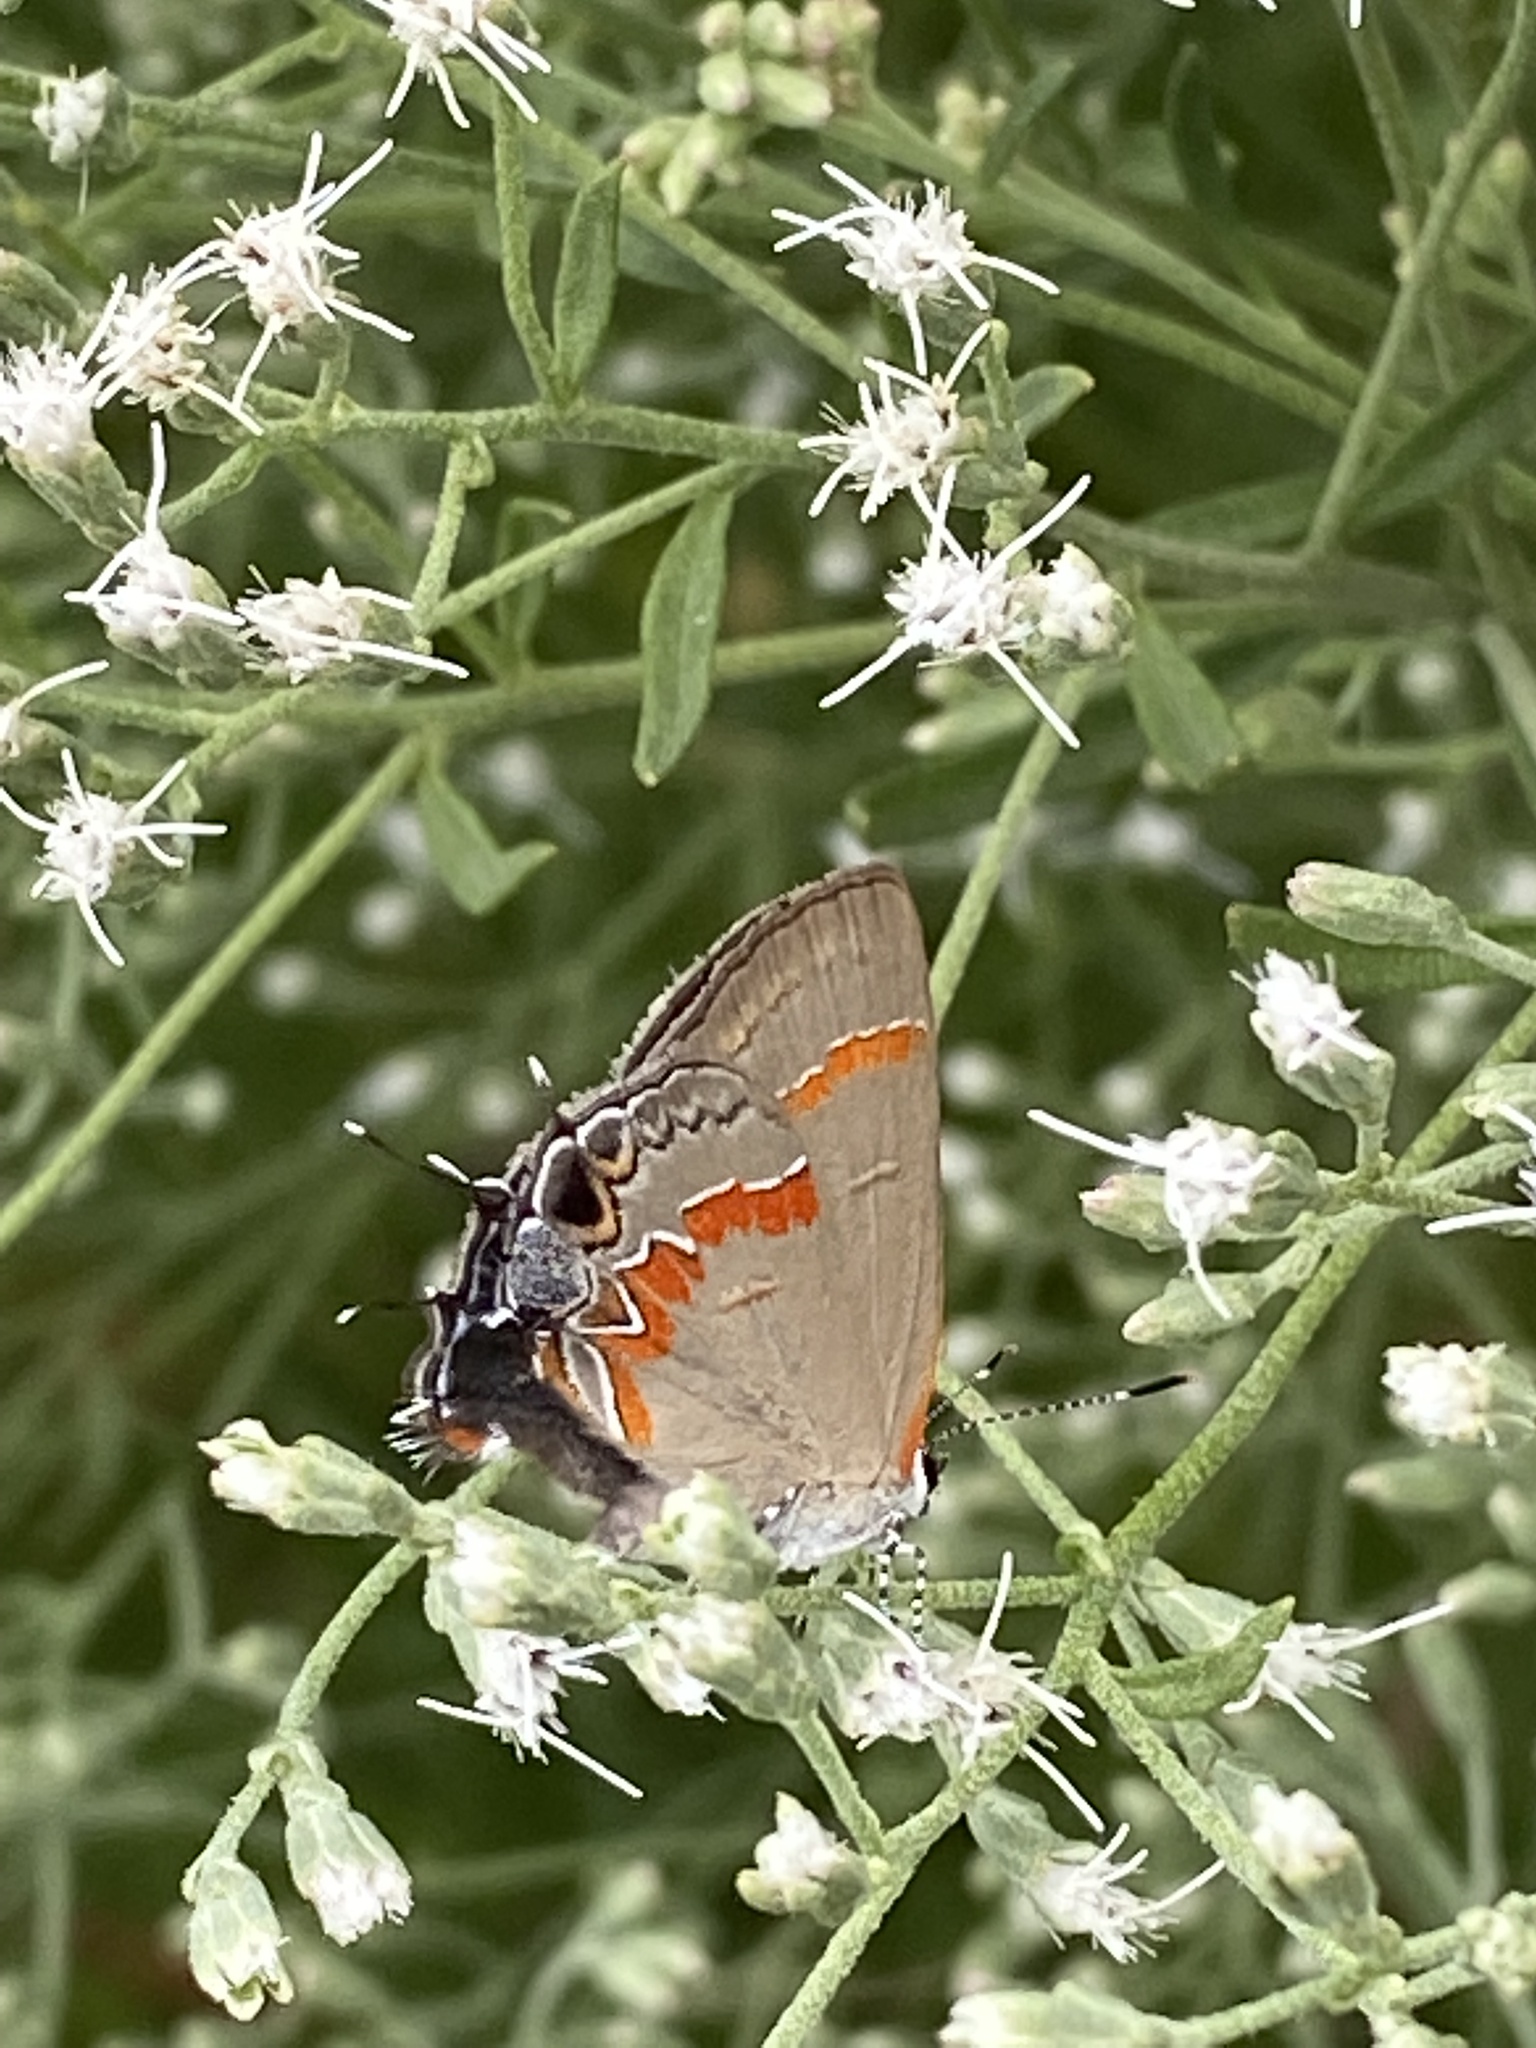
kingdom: Animalia
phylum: Arthropoda
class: Insecta
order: Lepidoptera
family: Lycaenidae
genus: Calycopis
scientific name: Calycopis cecrops
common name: Red-banded hairstreak
